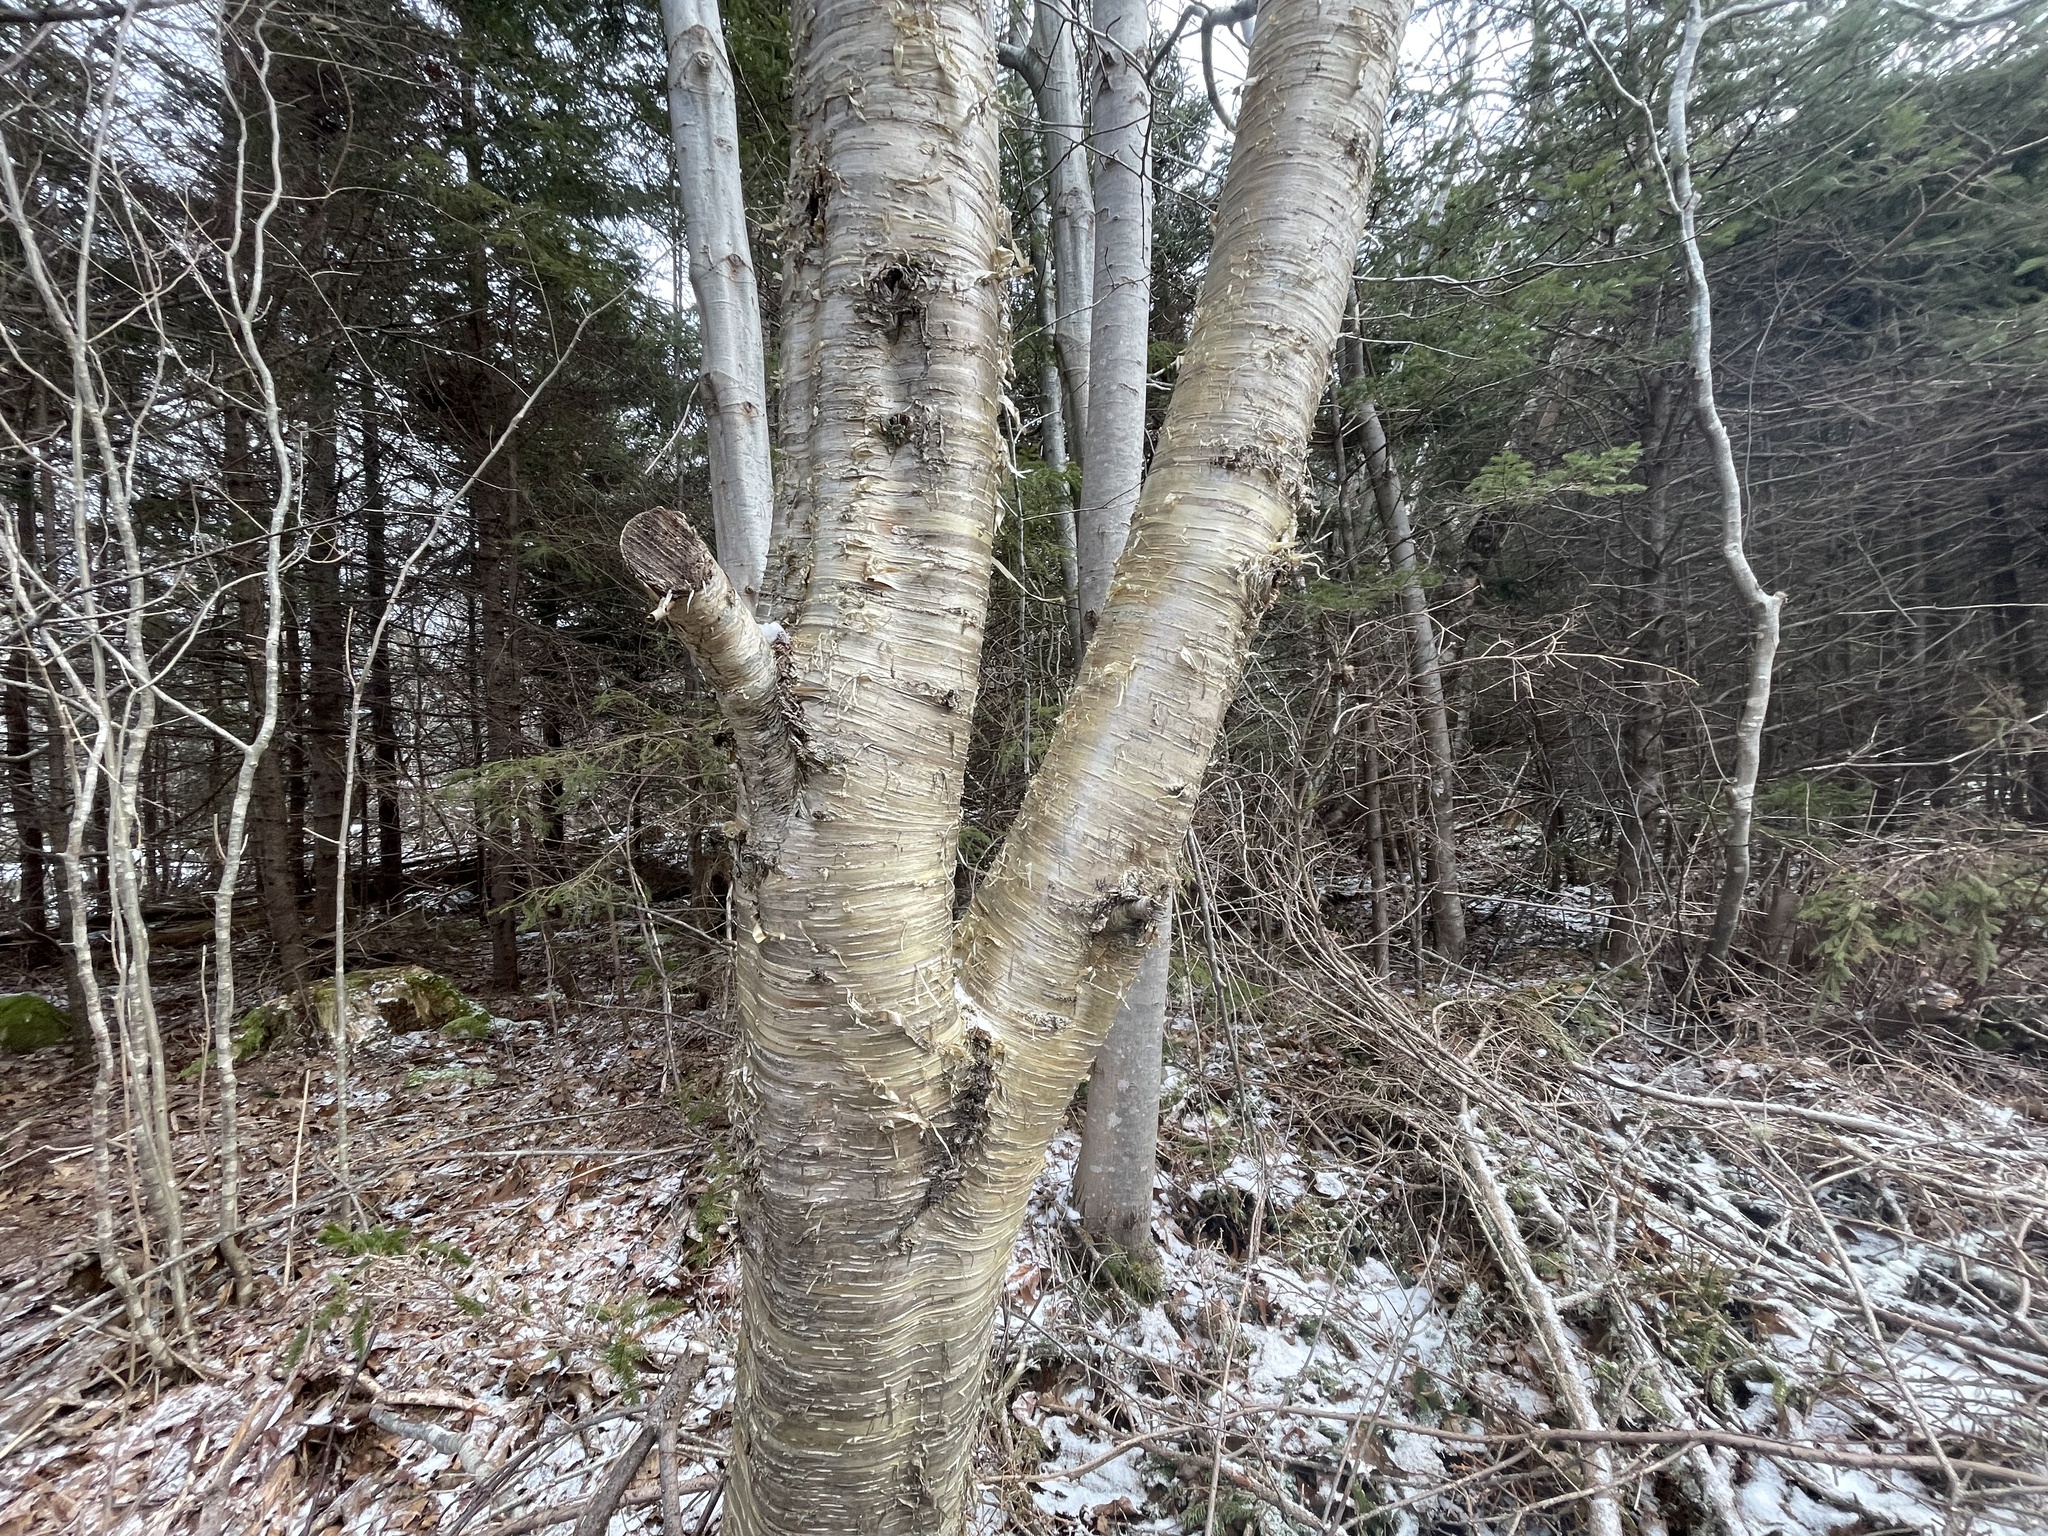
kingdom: Plantae
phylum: Tracheophyta
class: Magnoliopsida
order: Fagales
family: Betulaceae
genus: Betula
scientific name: Betula alleghaniensis
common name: Yellow birch
